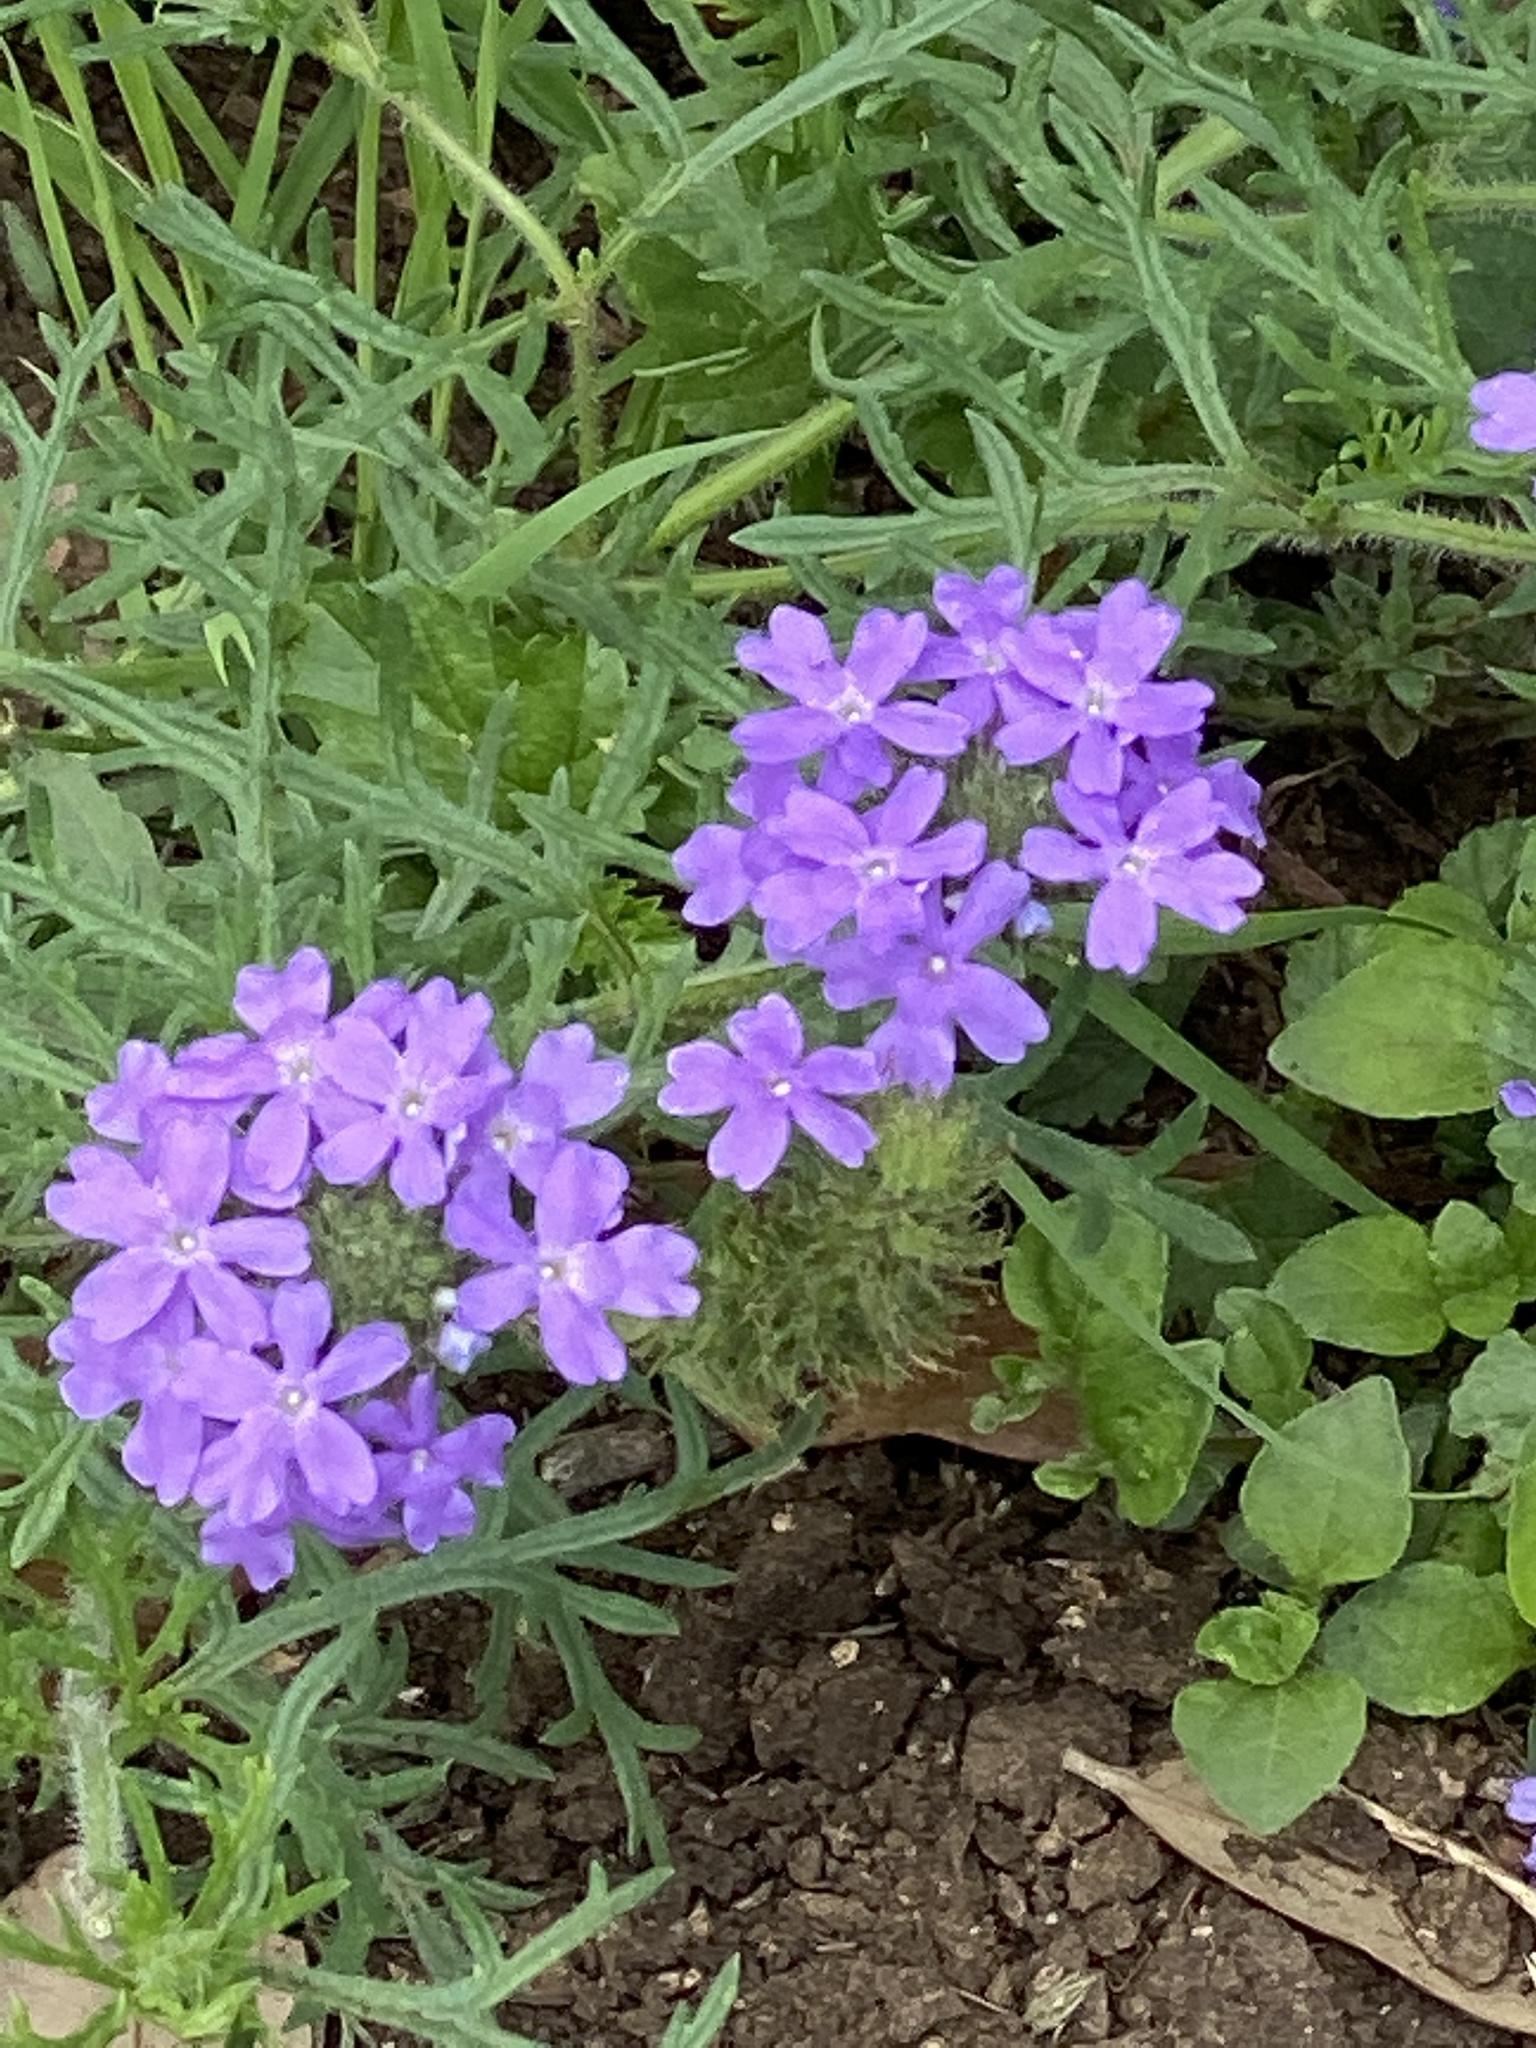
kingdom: Plantae
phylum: Tracheophyta
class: Magnoliopsida
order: Lamiales
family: Verbenaceae
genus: Verbena
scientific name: Verbena bipinnatifida
